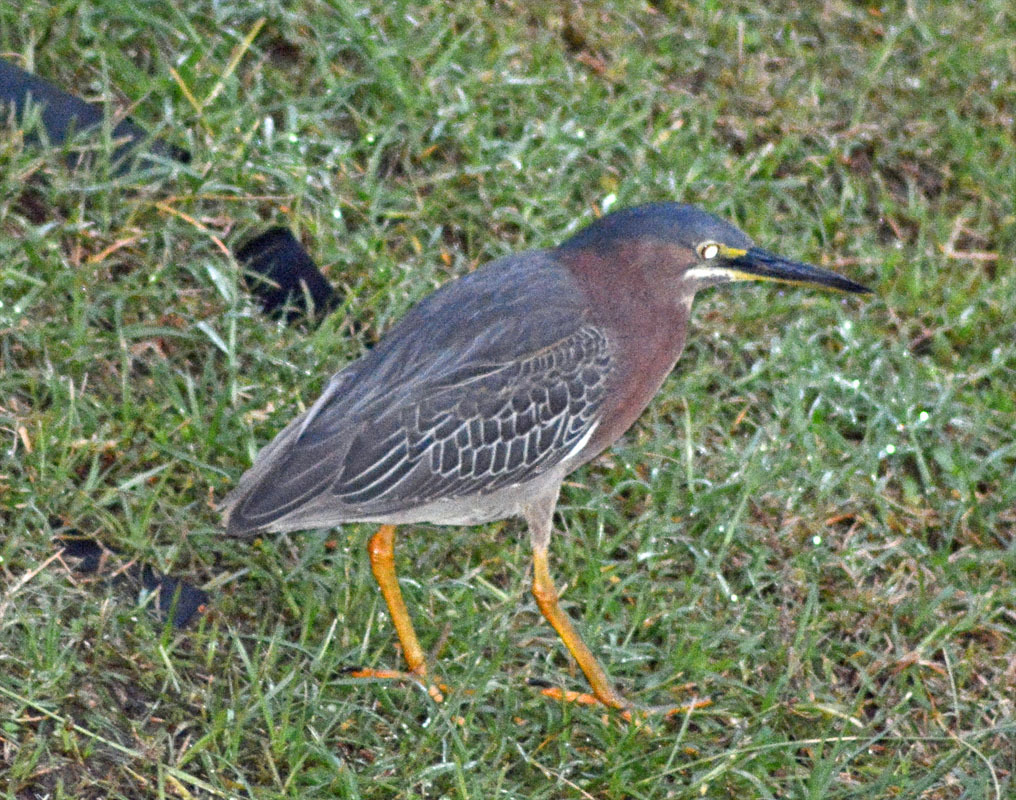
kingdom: Animalia
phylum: Chordata
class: Aves
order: Pelecaniformes
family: Ardeidae
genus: Butorides
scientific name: Butorides virescens
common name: Green heron
